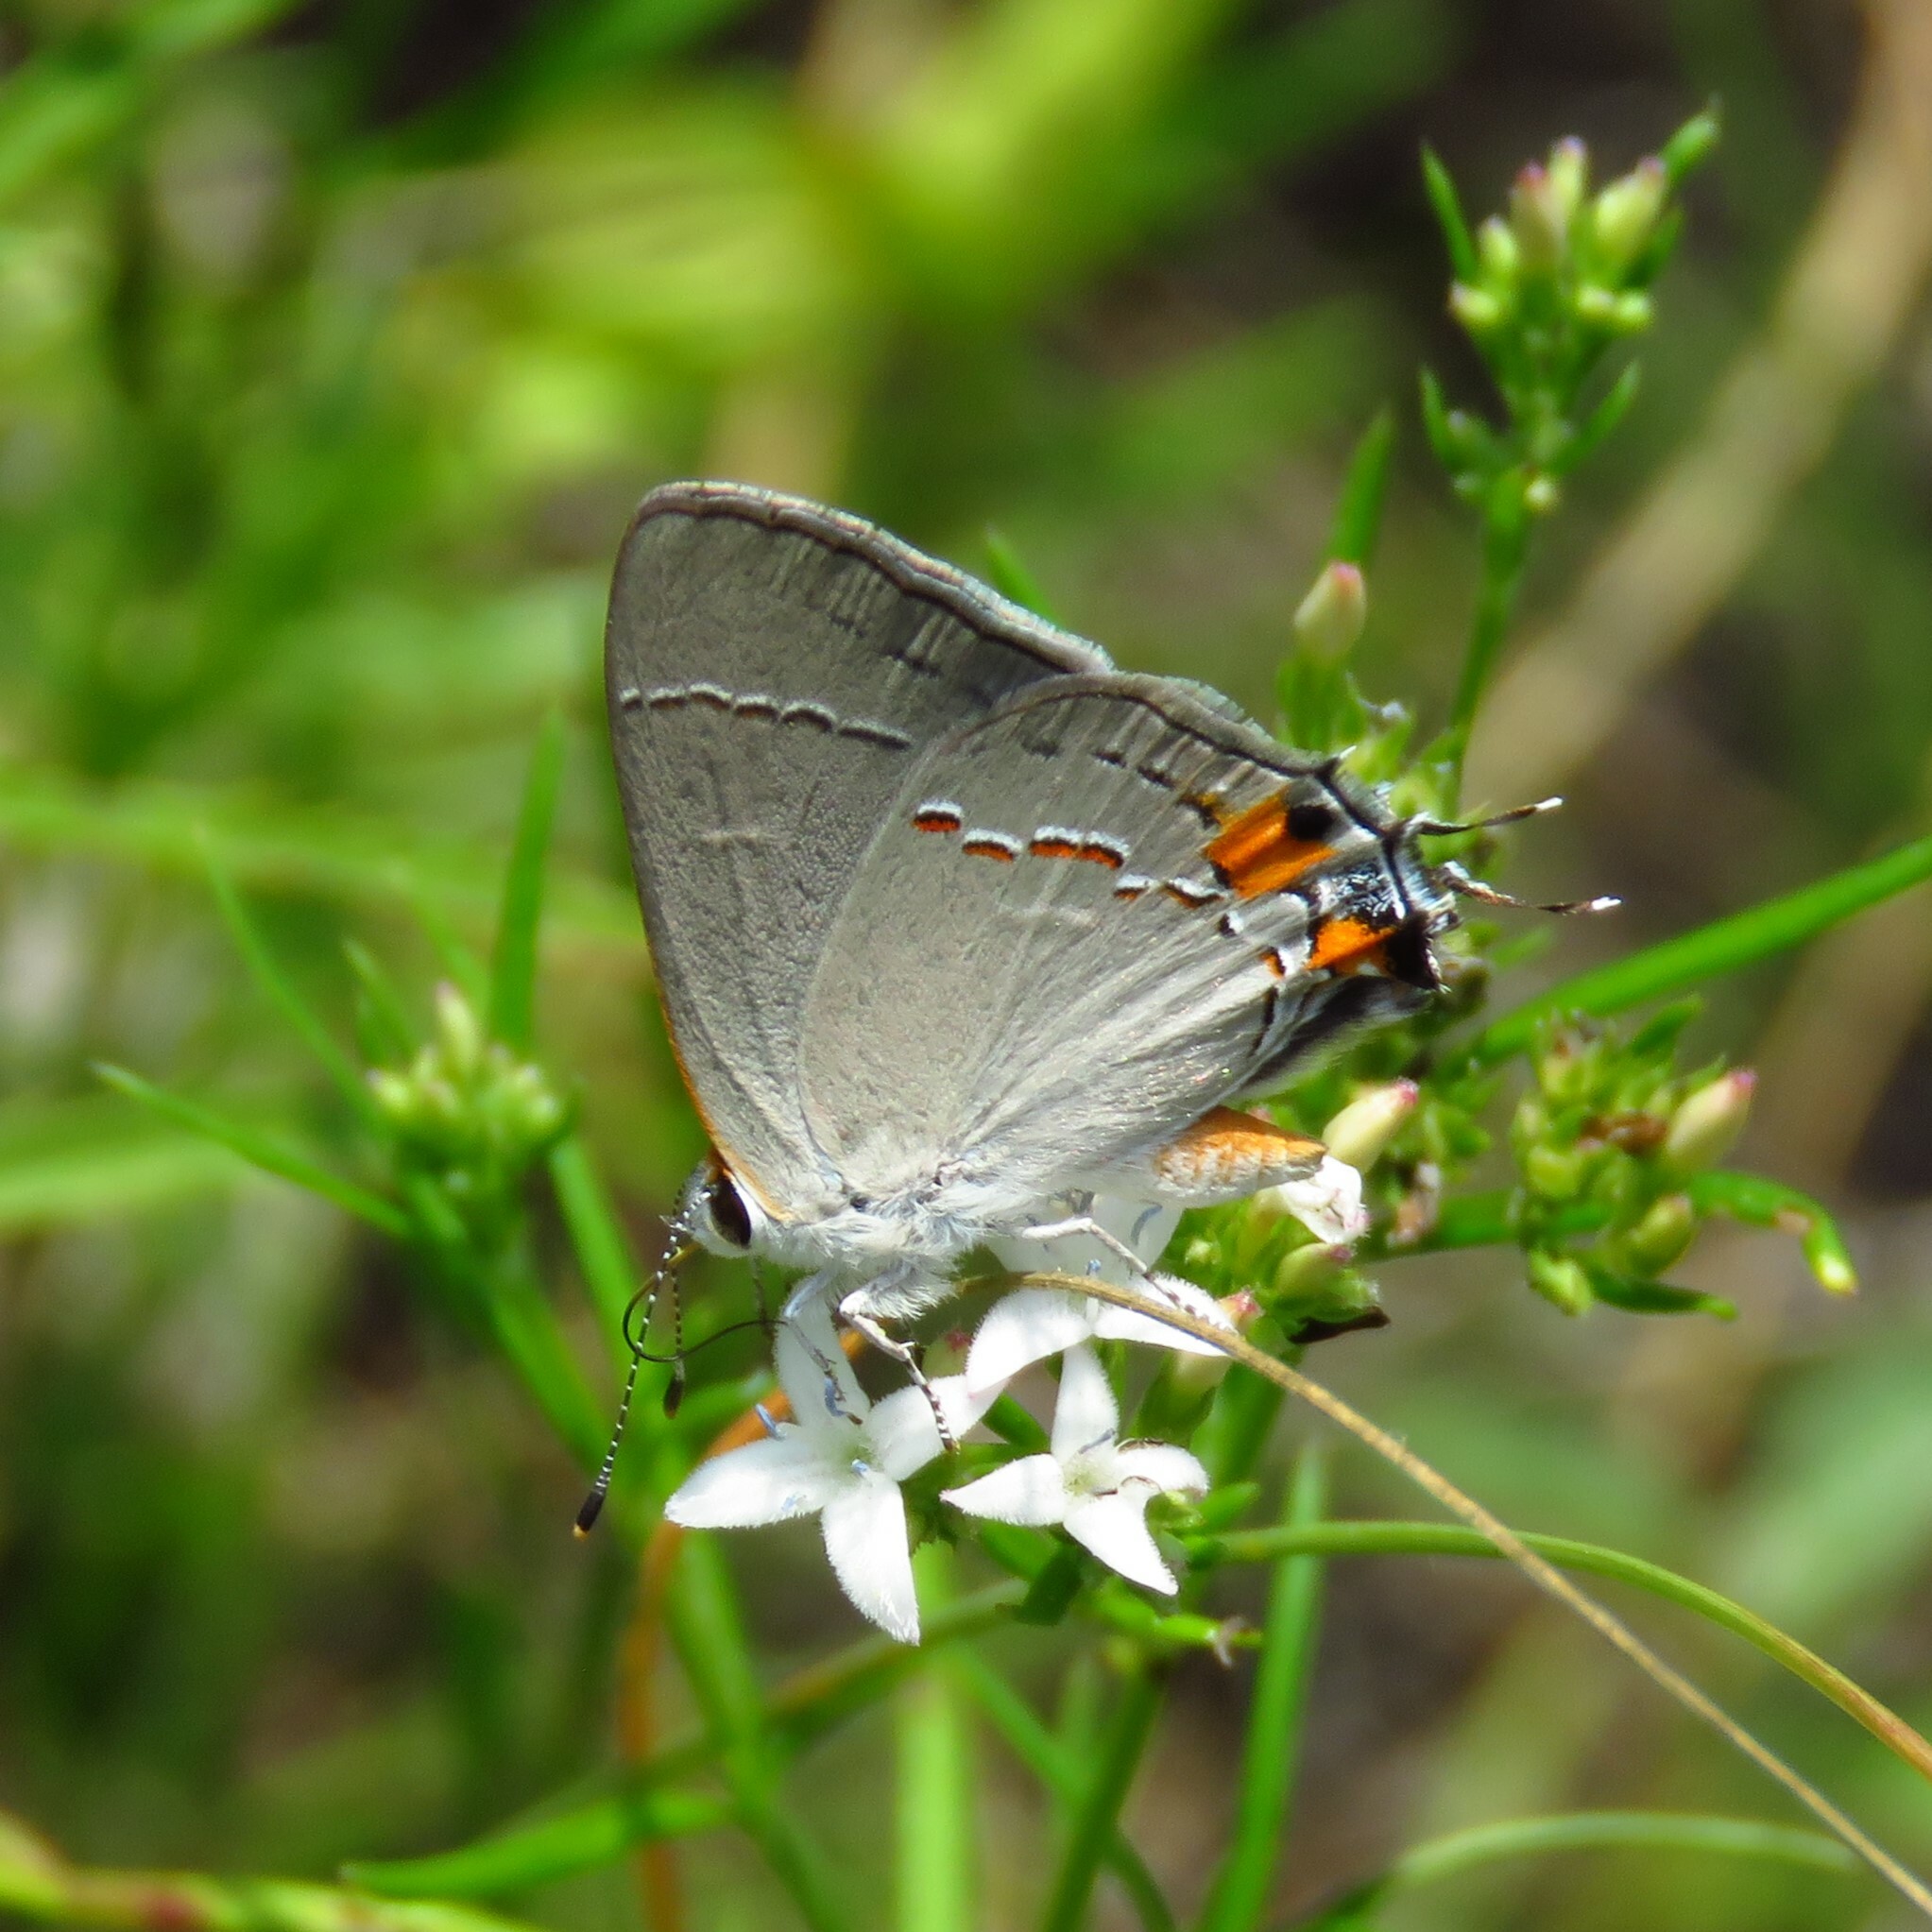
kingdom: Animalia
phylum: Arthropoda
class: Insecta
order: Lepidoptera
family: Lycaenidae
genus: Strymon
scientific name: Strymon melinus
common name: Gray hairstreak
